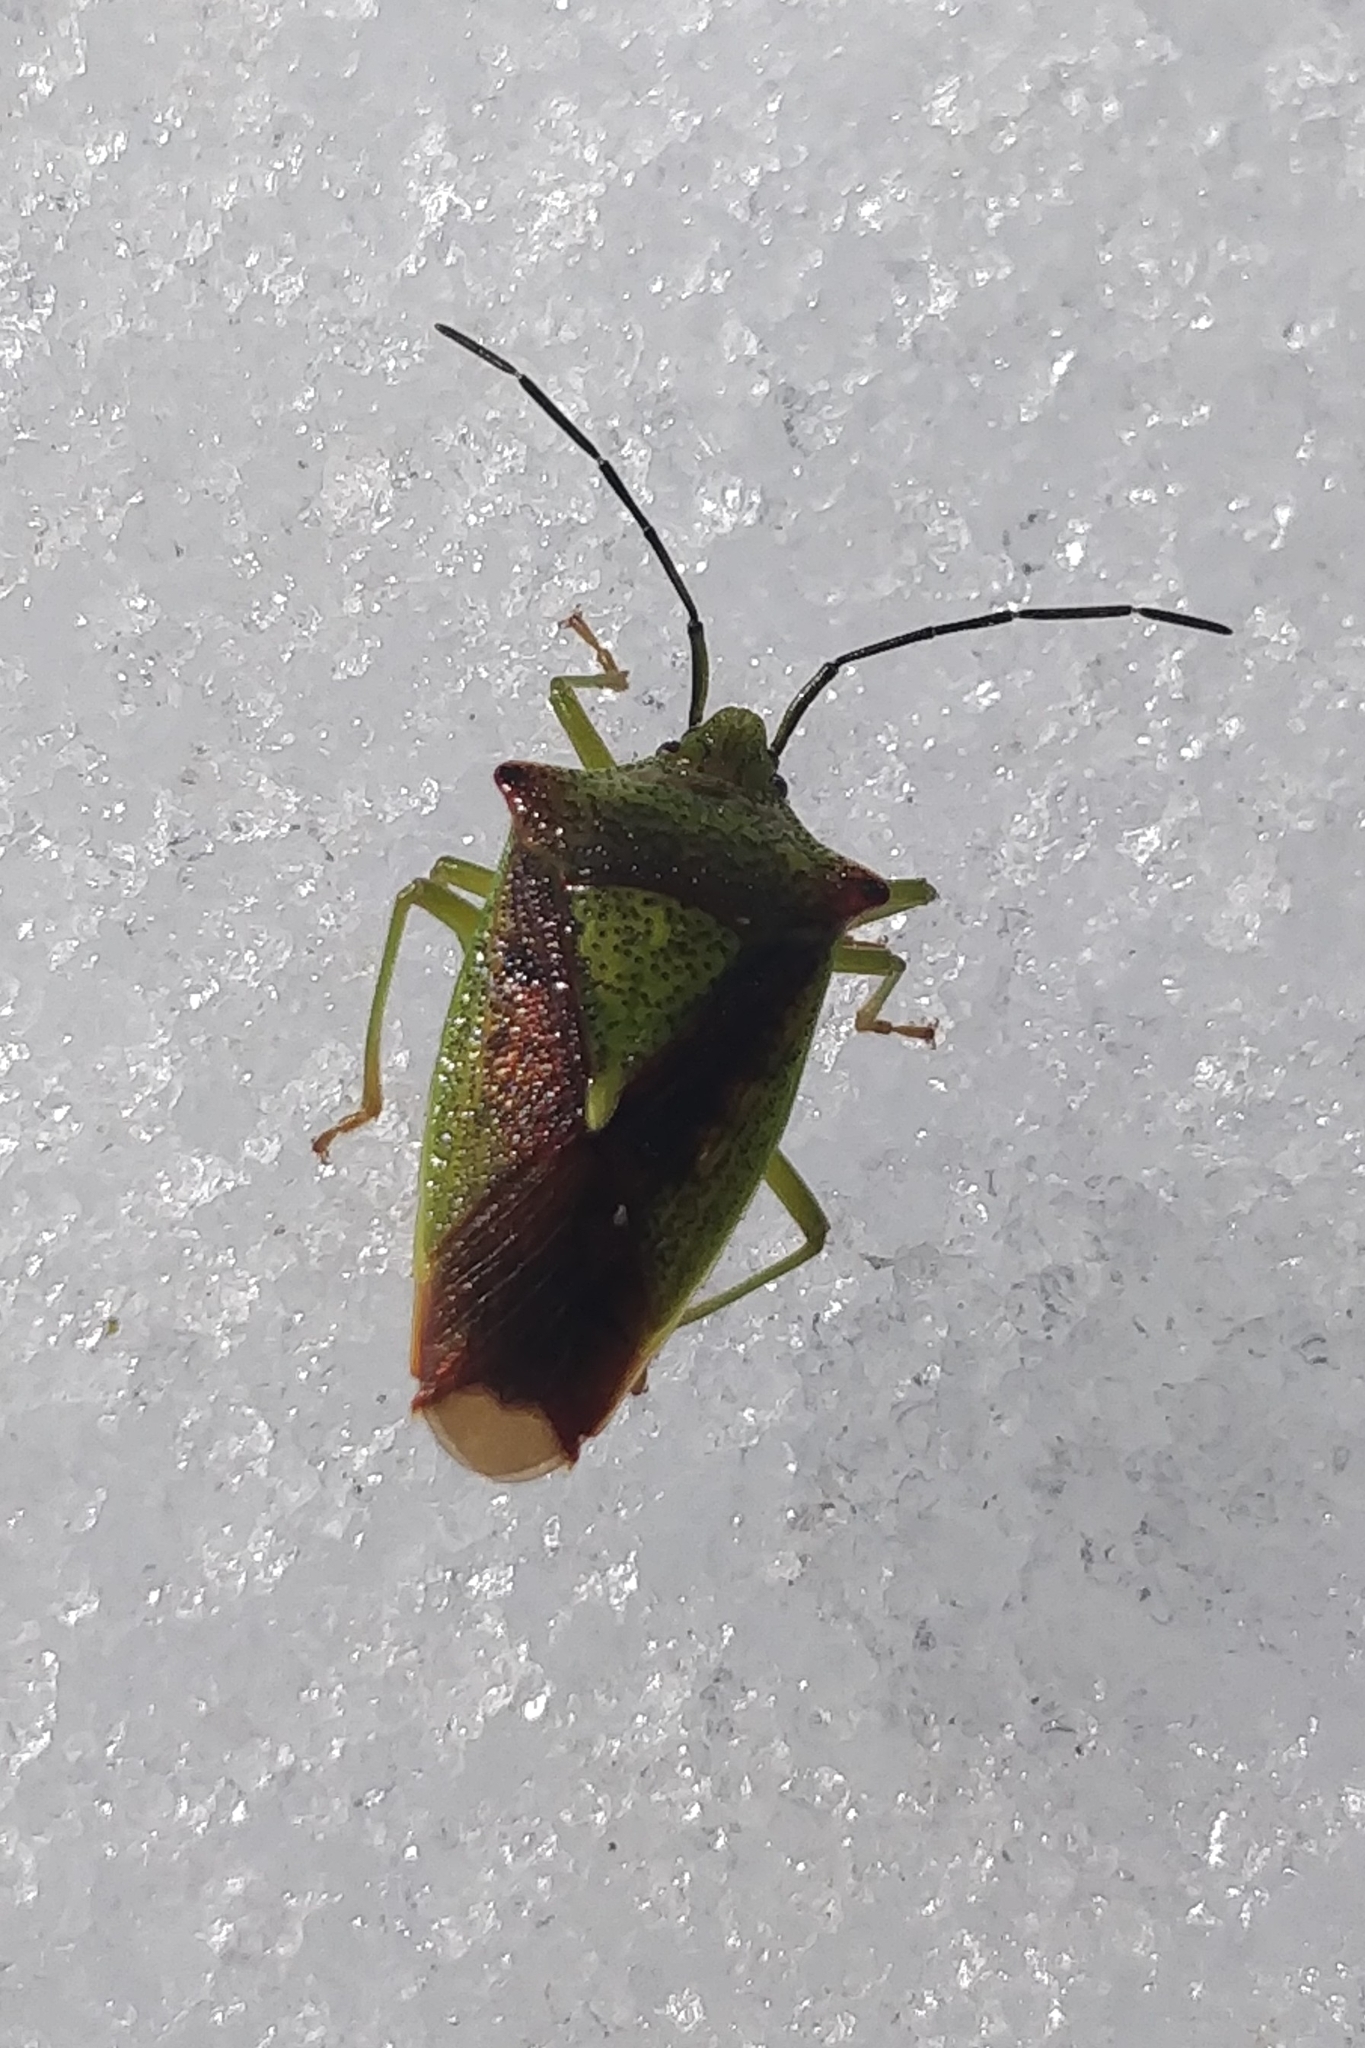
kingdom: Animalia
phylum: Arthropoda
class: Insecta
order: Hemiptera
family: Acanthosomatidae
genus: Acanthosoma
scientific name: Acanthosoma haemorrhoidale
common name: Hawthorn shieldbug
